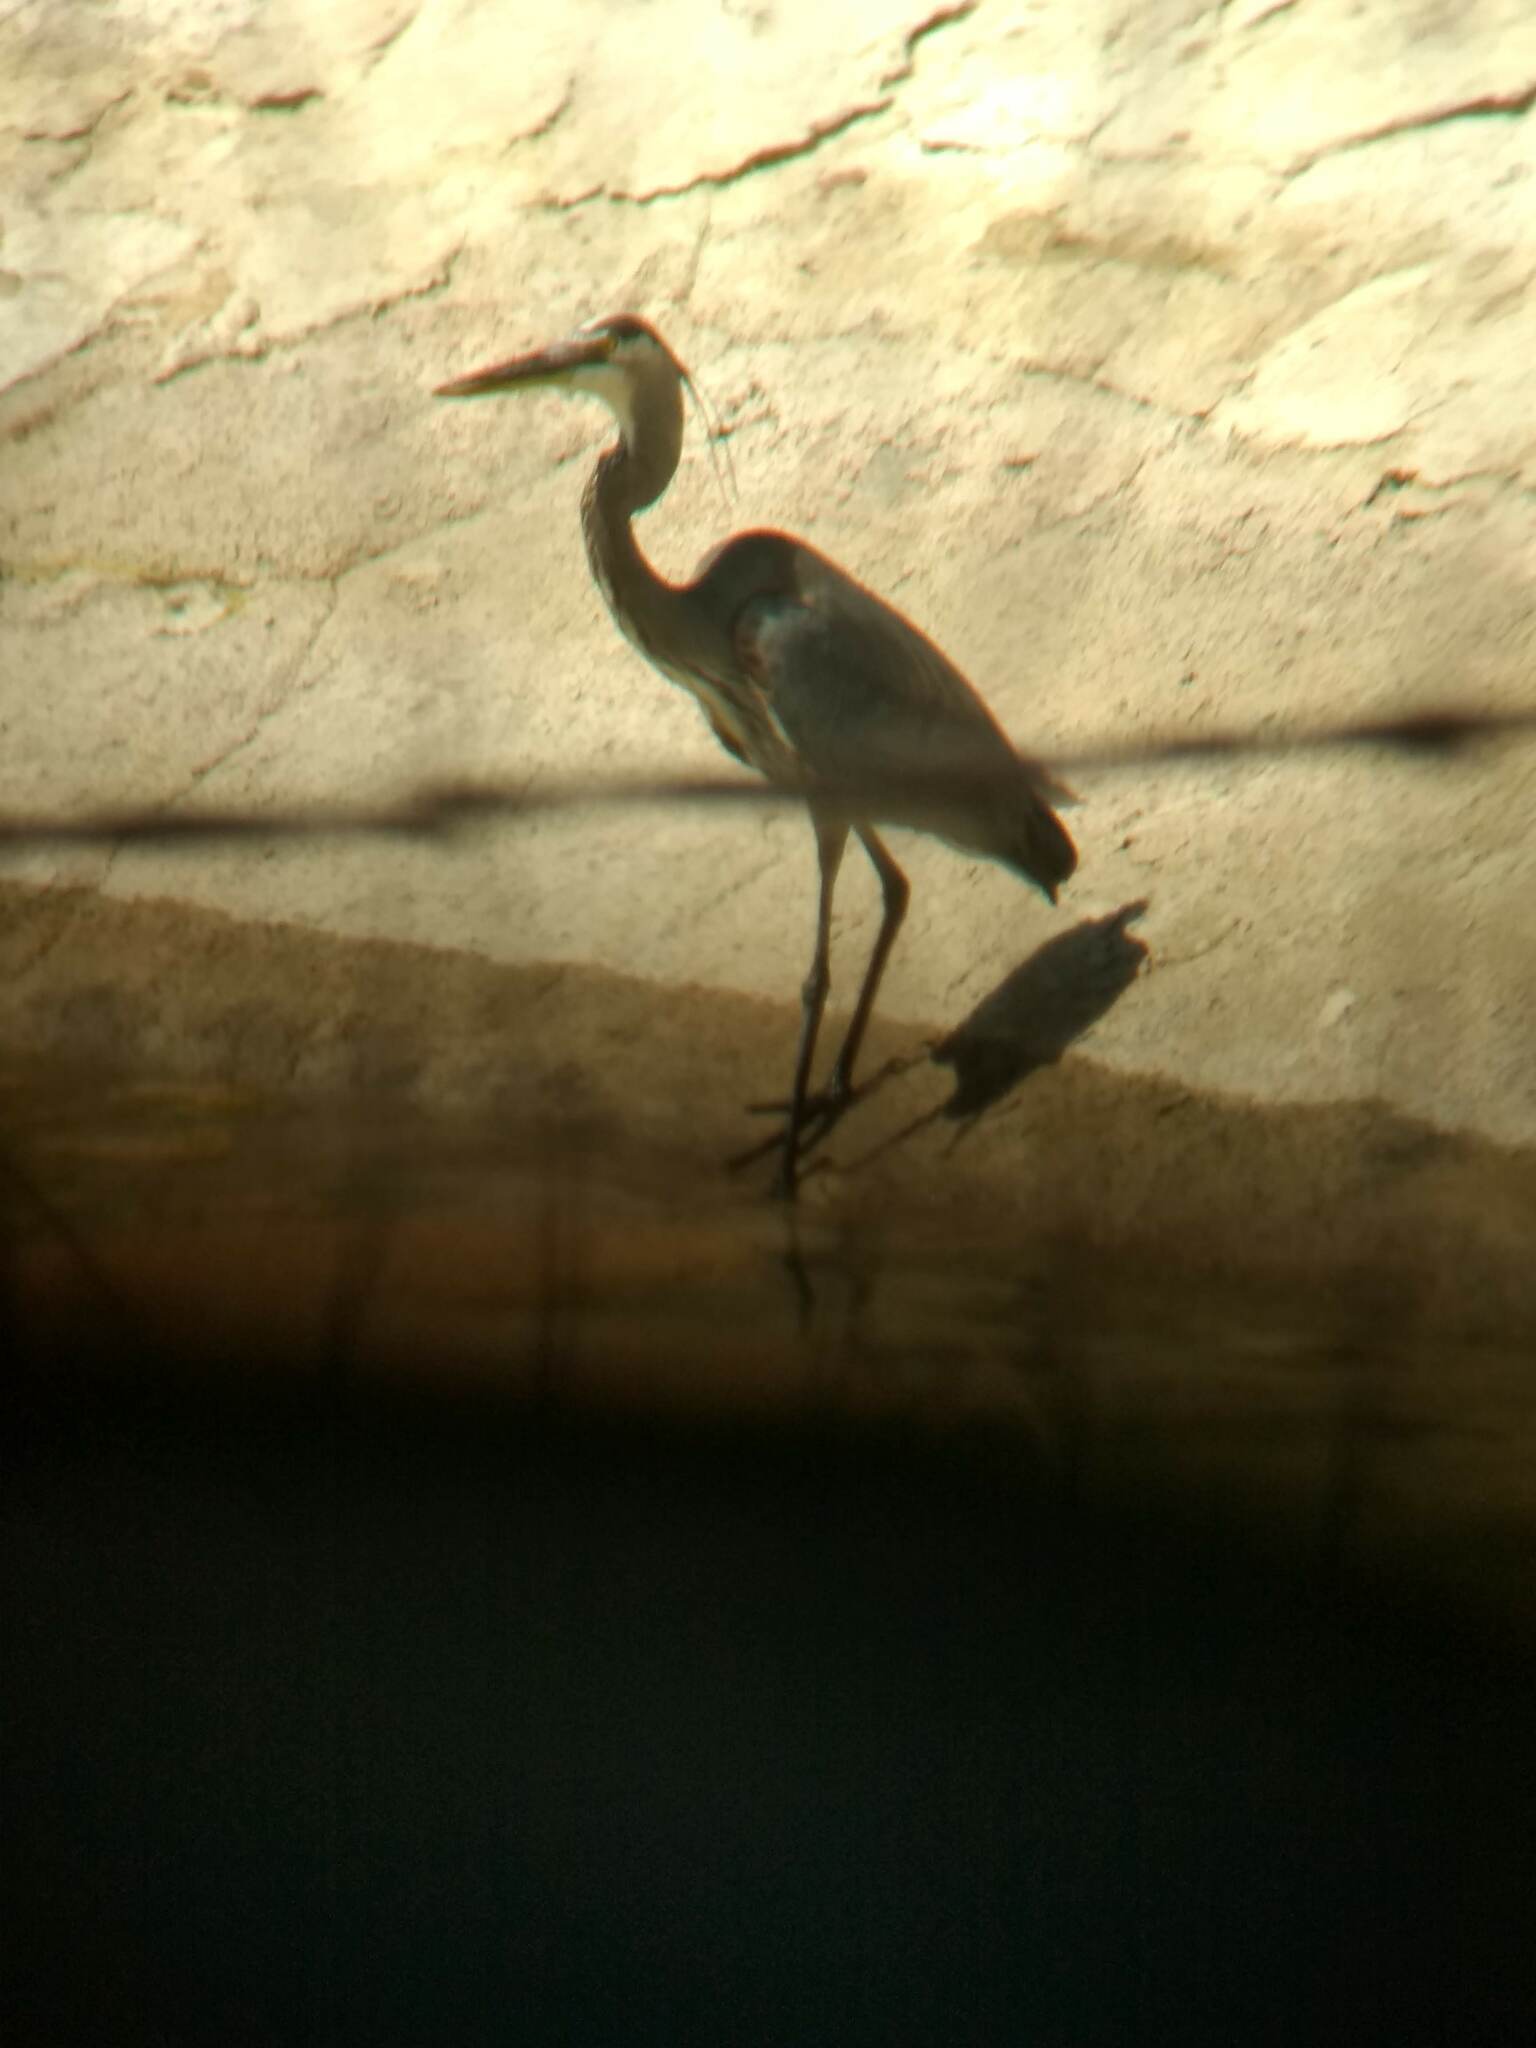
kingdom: Animalia
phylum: Chordata
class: Aves
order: Pelecaniformes
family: Ardeidae
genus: Ardea
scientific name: Ardea herodias
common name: Great blue heron
